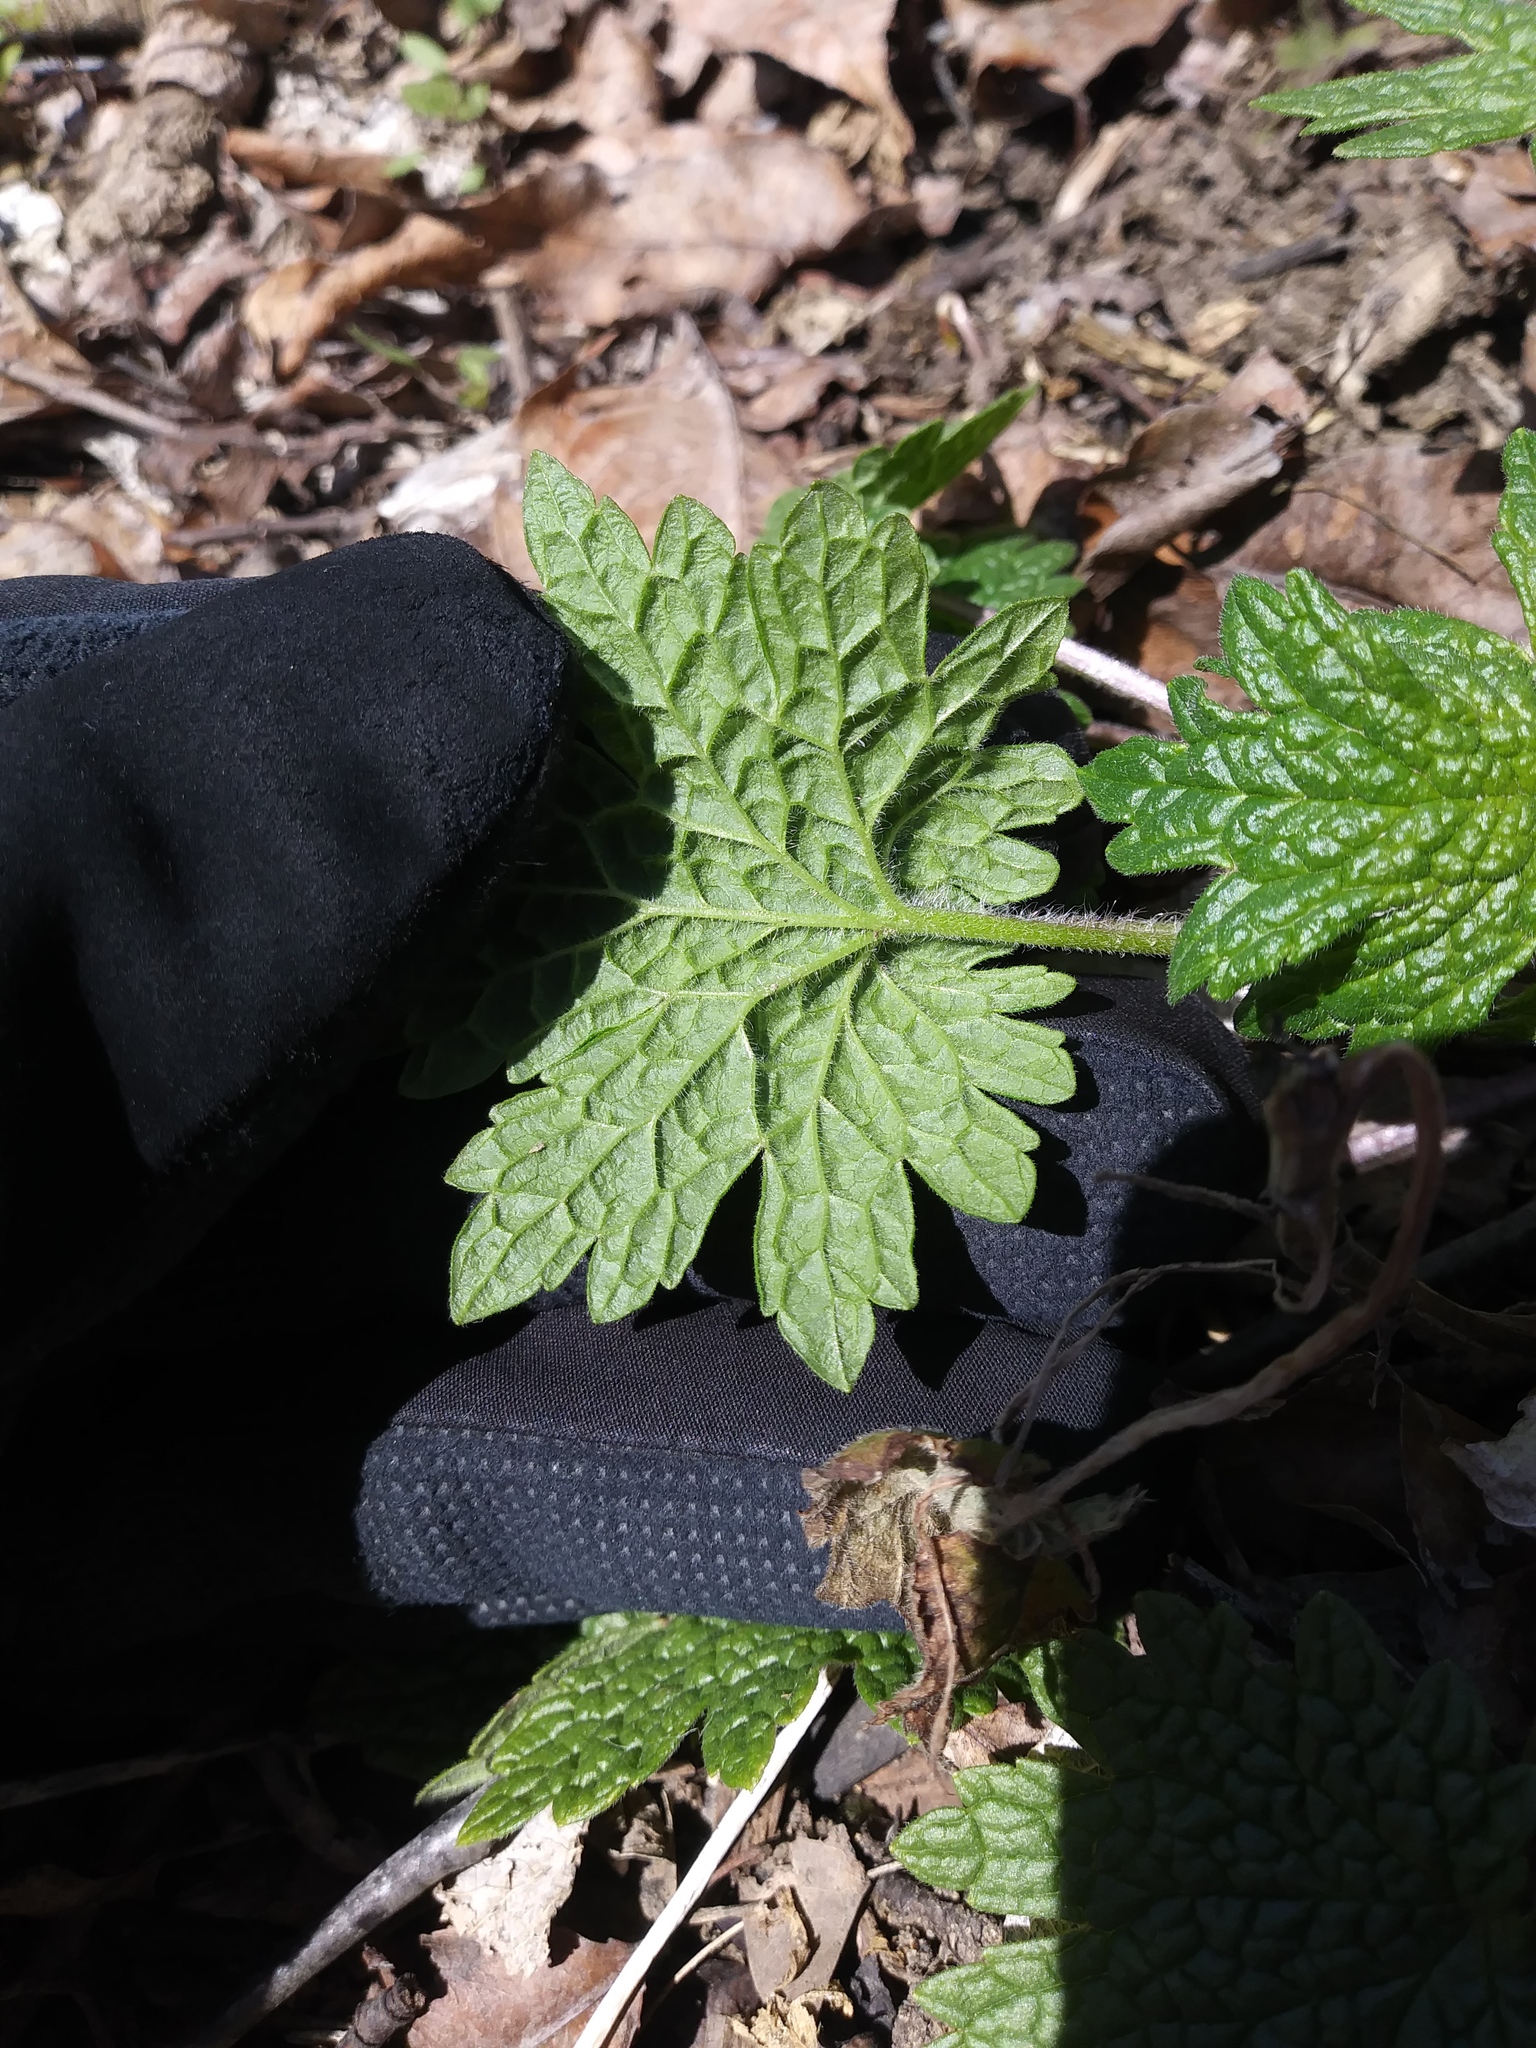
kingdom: Plantae
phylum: Tracheophyta
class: Magnoliopsida
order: Lamiales
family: Lamiaceae
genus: Leonurus
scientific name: Leonurus cardiaca
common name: Motherwort
